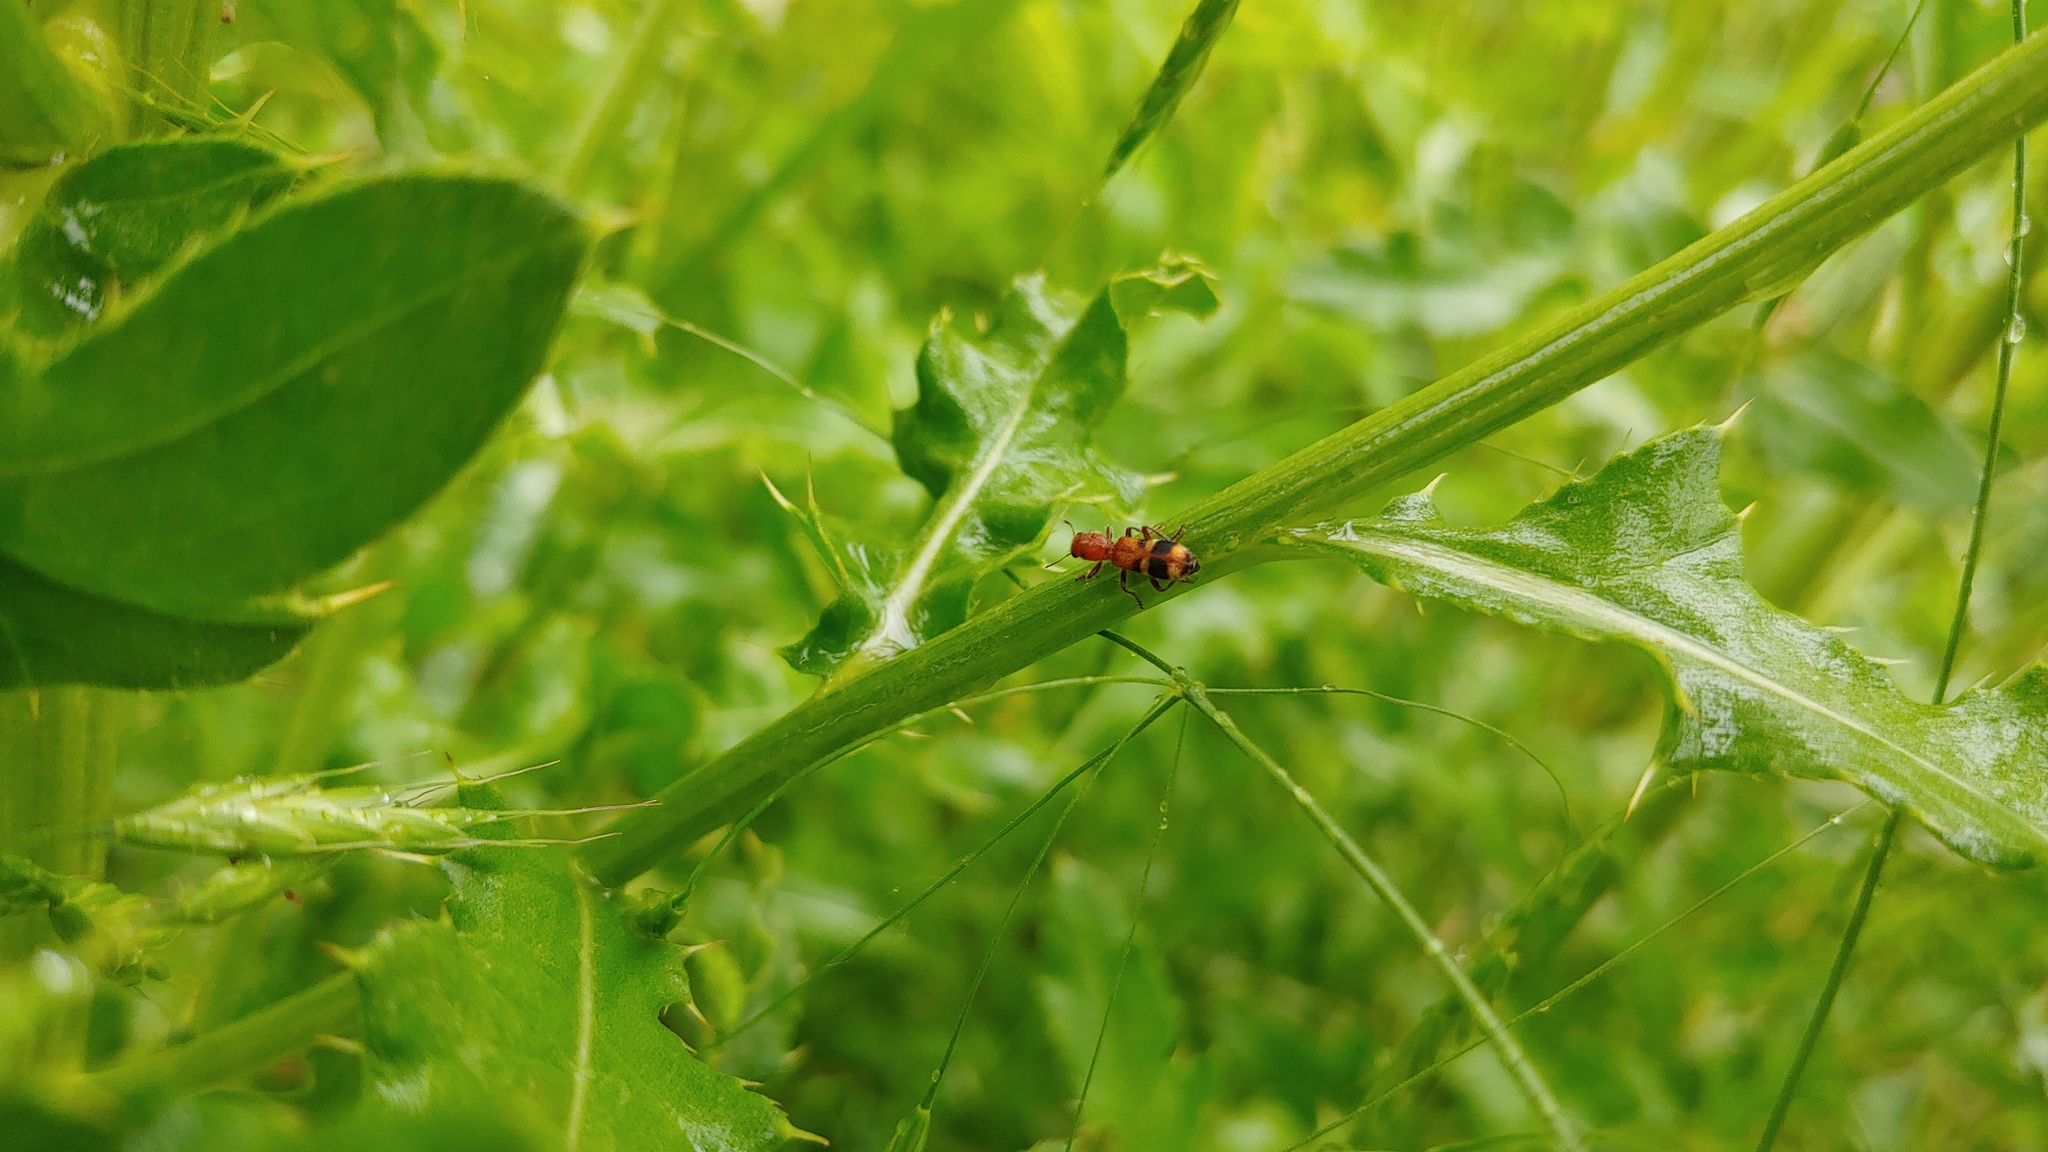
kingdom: Animalia
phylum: Arthropoda
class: Insecta
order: Coleoptera
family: Cleridae
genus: Enoclerus
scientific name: Enoclerus rosmarus
